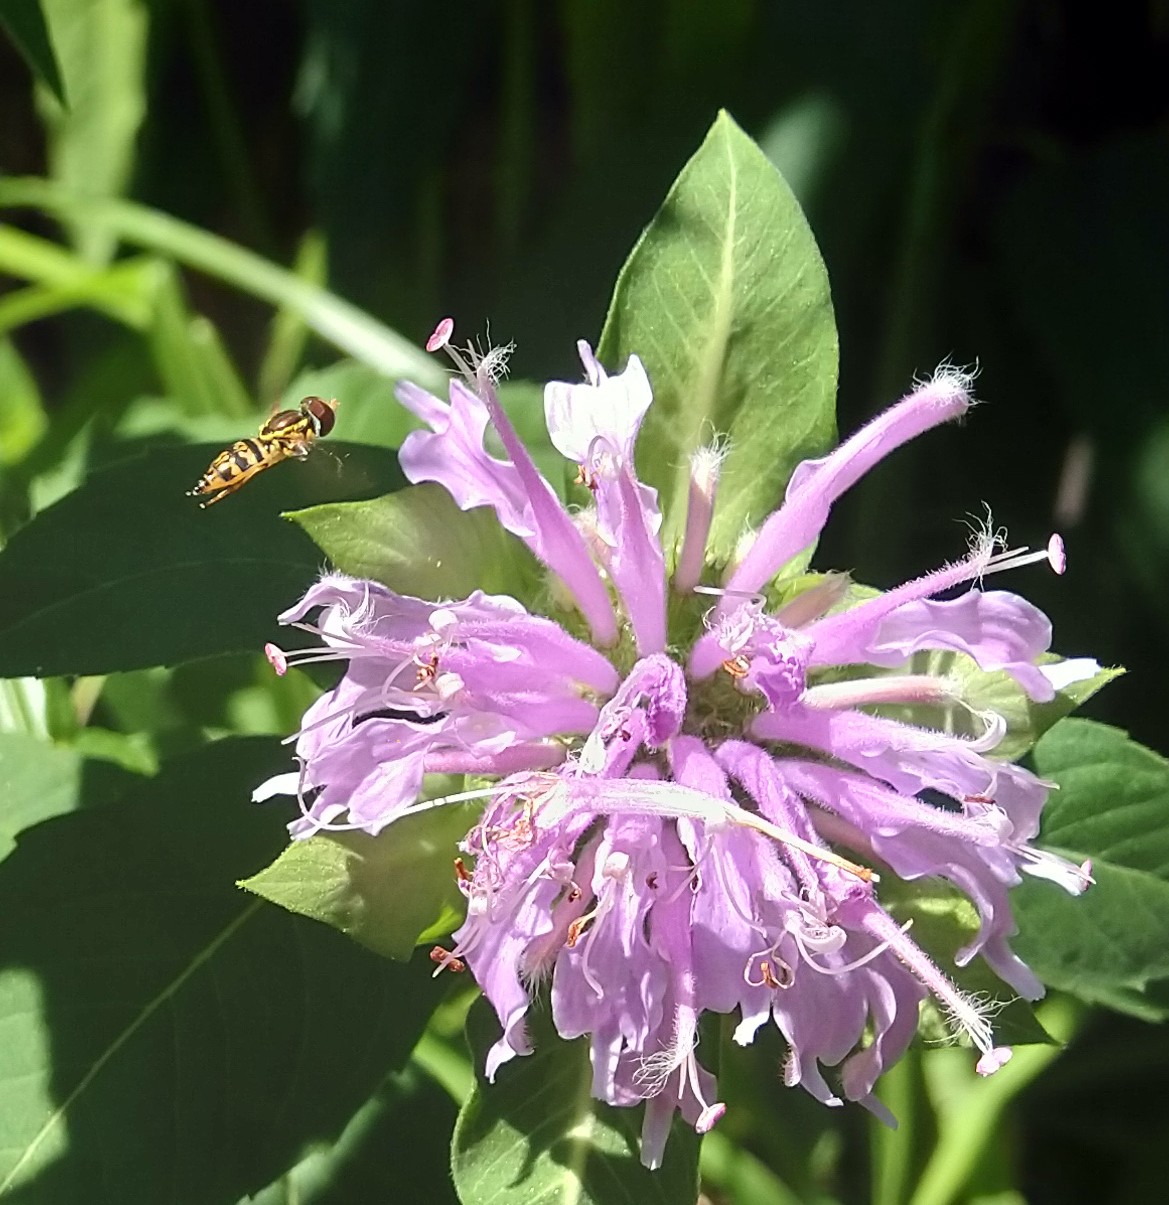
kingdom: Animalia
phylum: Arthropoda
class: Insecta
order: Diptera
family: Syrphidae
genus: Toxomerus
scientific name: Toxomerus geminatus
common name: Eastern calligrapher
